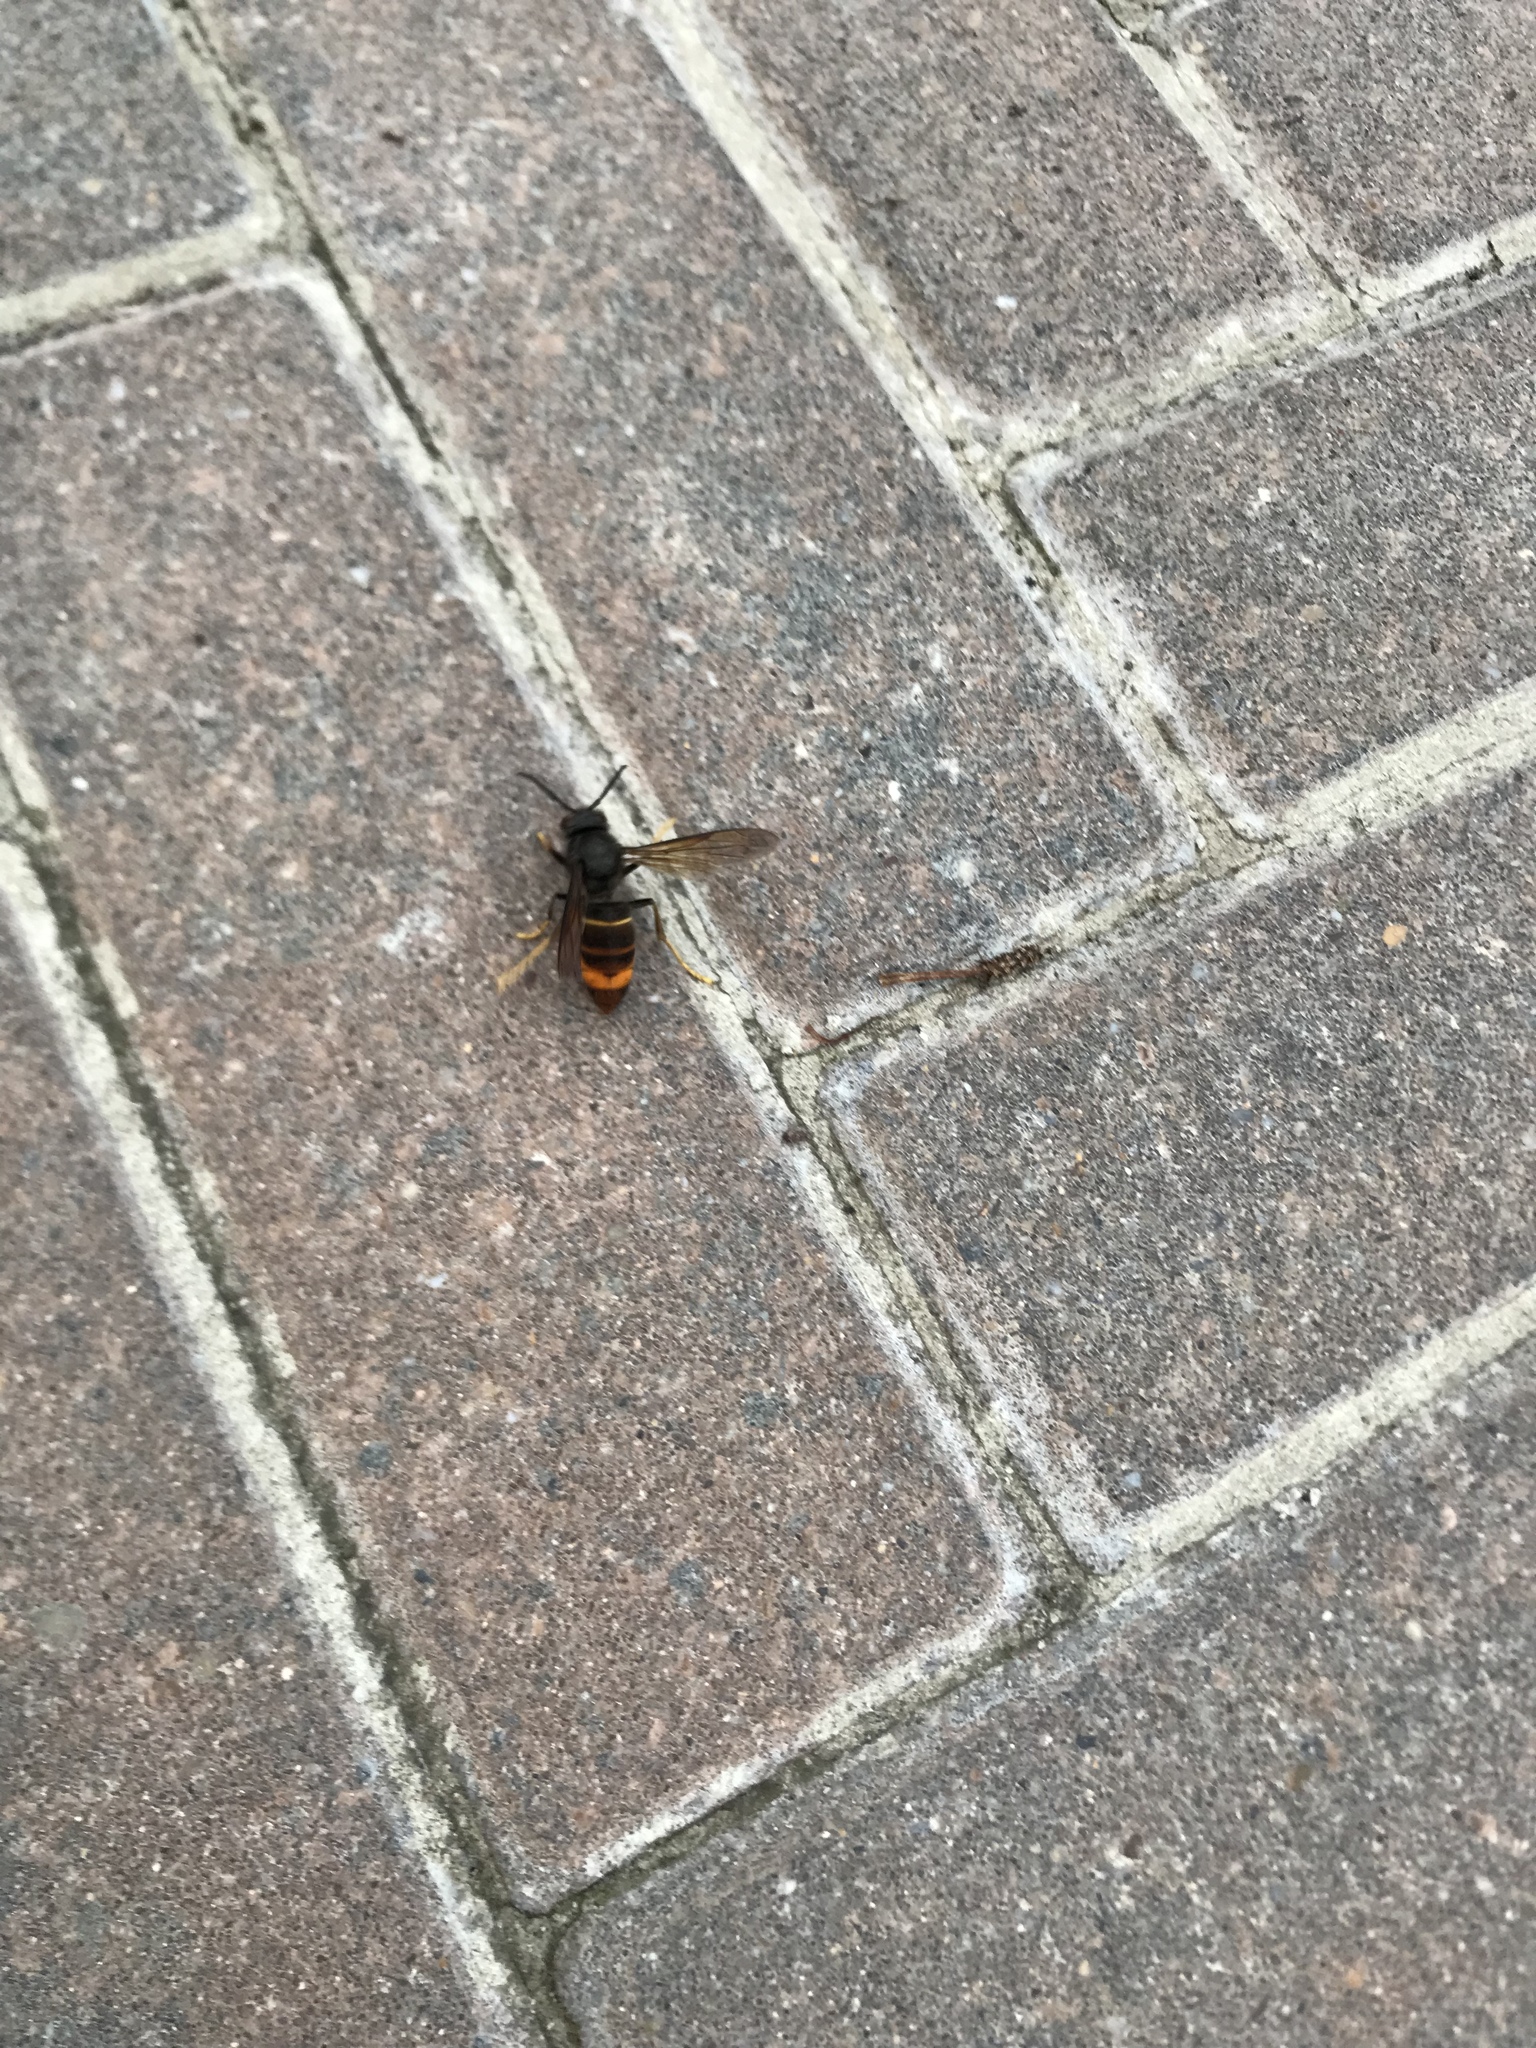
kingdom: Animalia
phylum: Arthropoda
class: Insecta
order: Hymenoptera
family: Vespidae
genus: Vespa
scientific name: Vespa velutina
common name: Asian hornet
